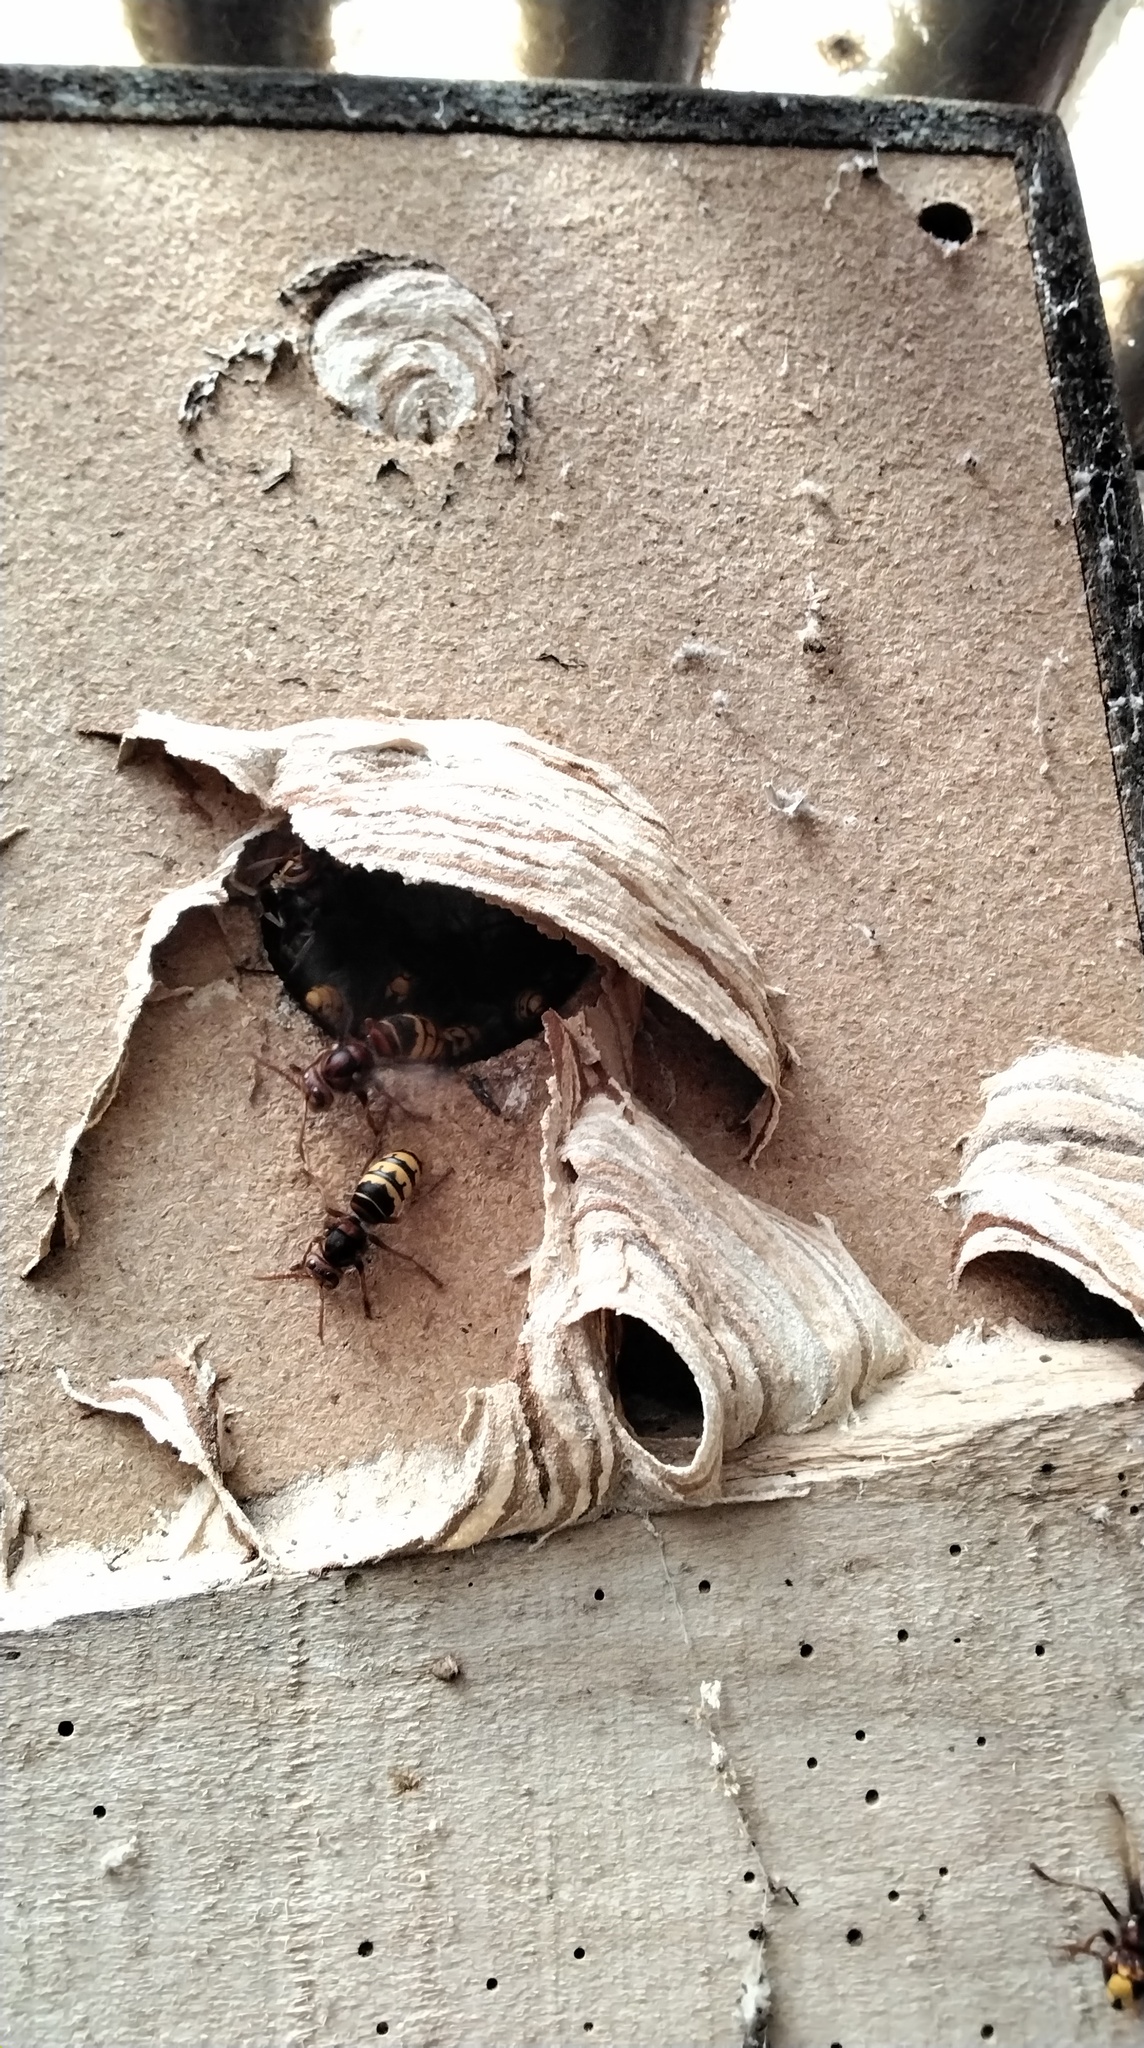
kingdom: Animalia
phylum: Arthropoda
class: Insecta
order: Hymenoptera
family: Vespidae
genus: Vespa
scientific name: Vespa crabro
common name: Hornet
